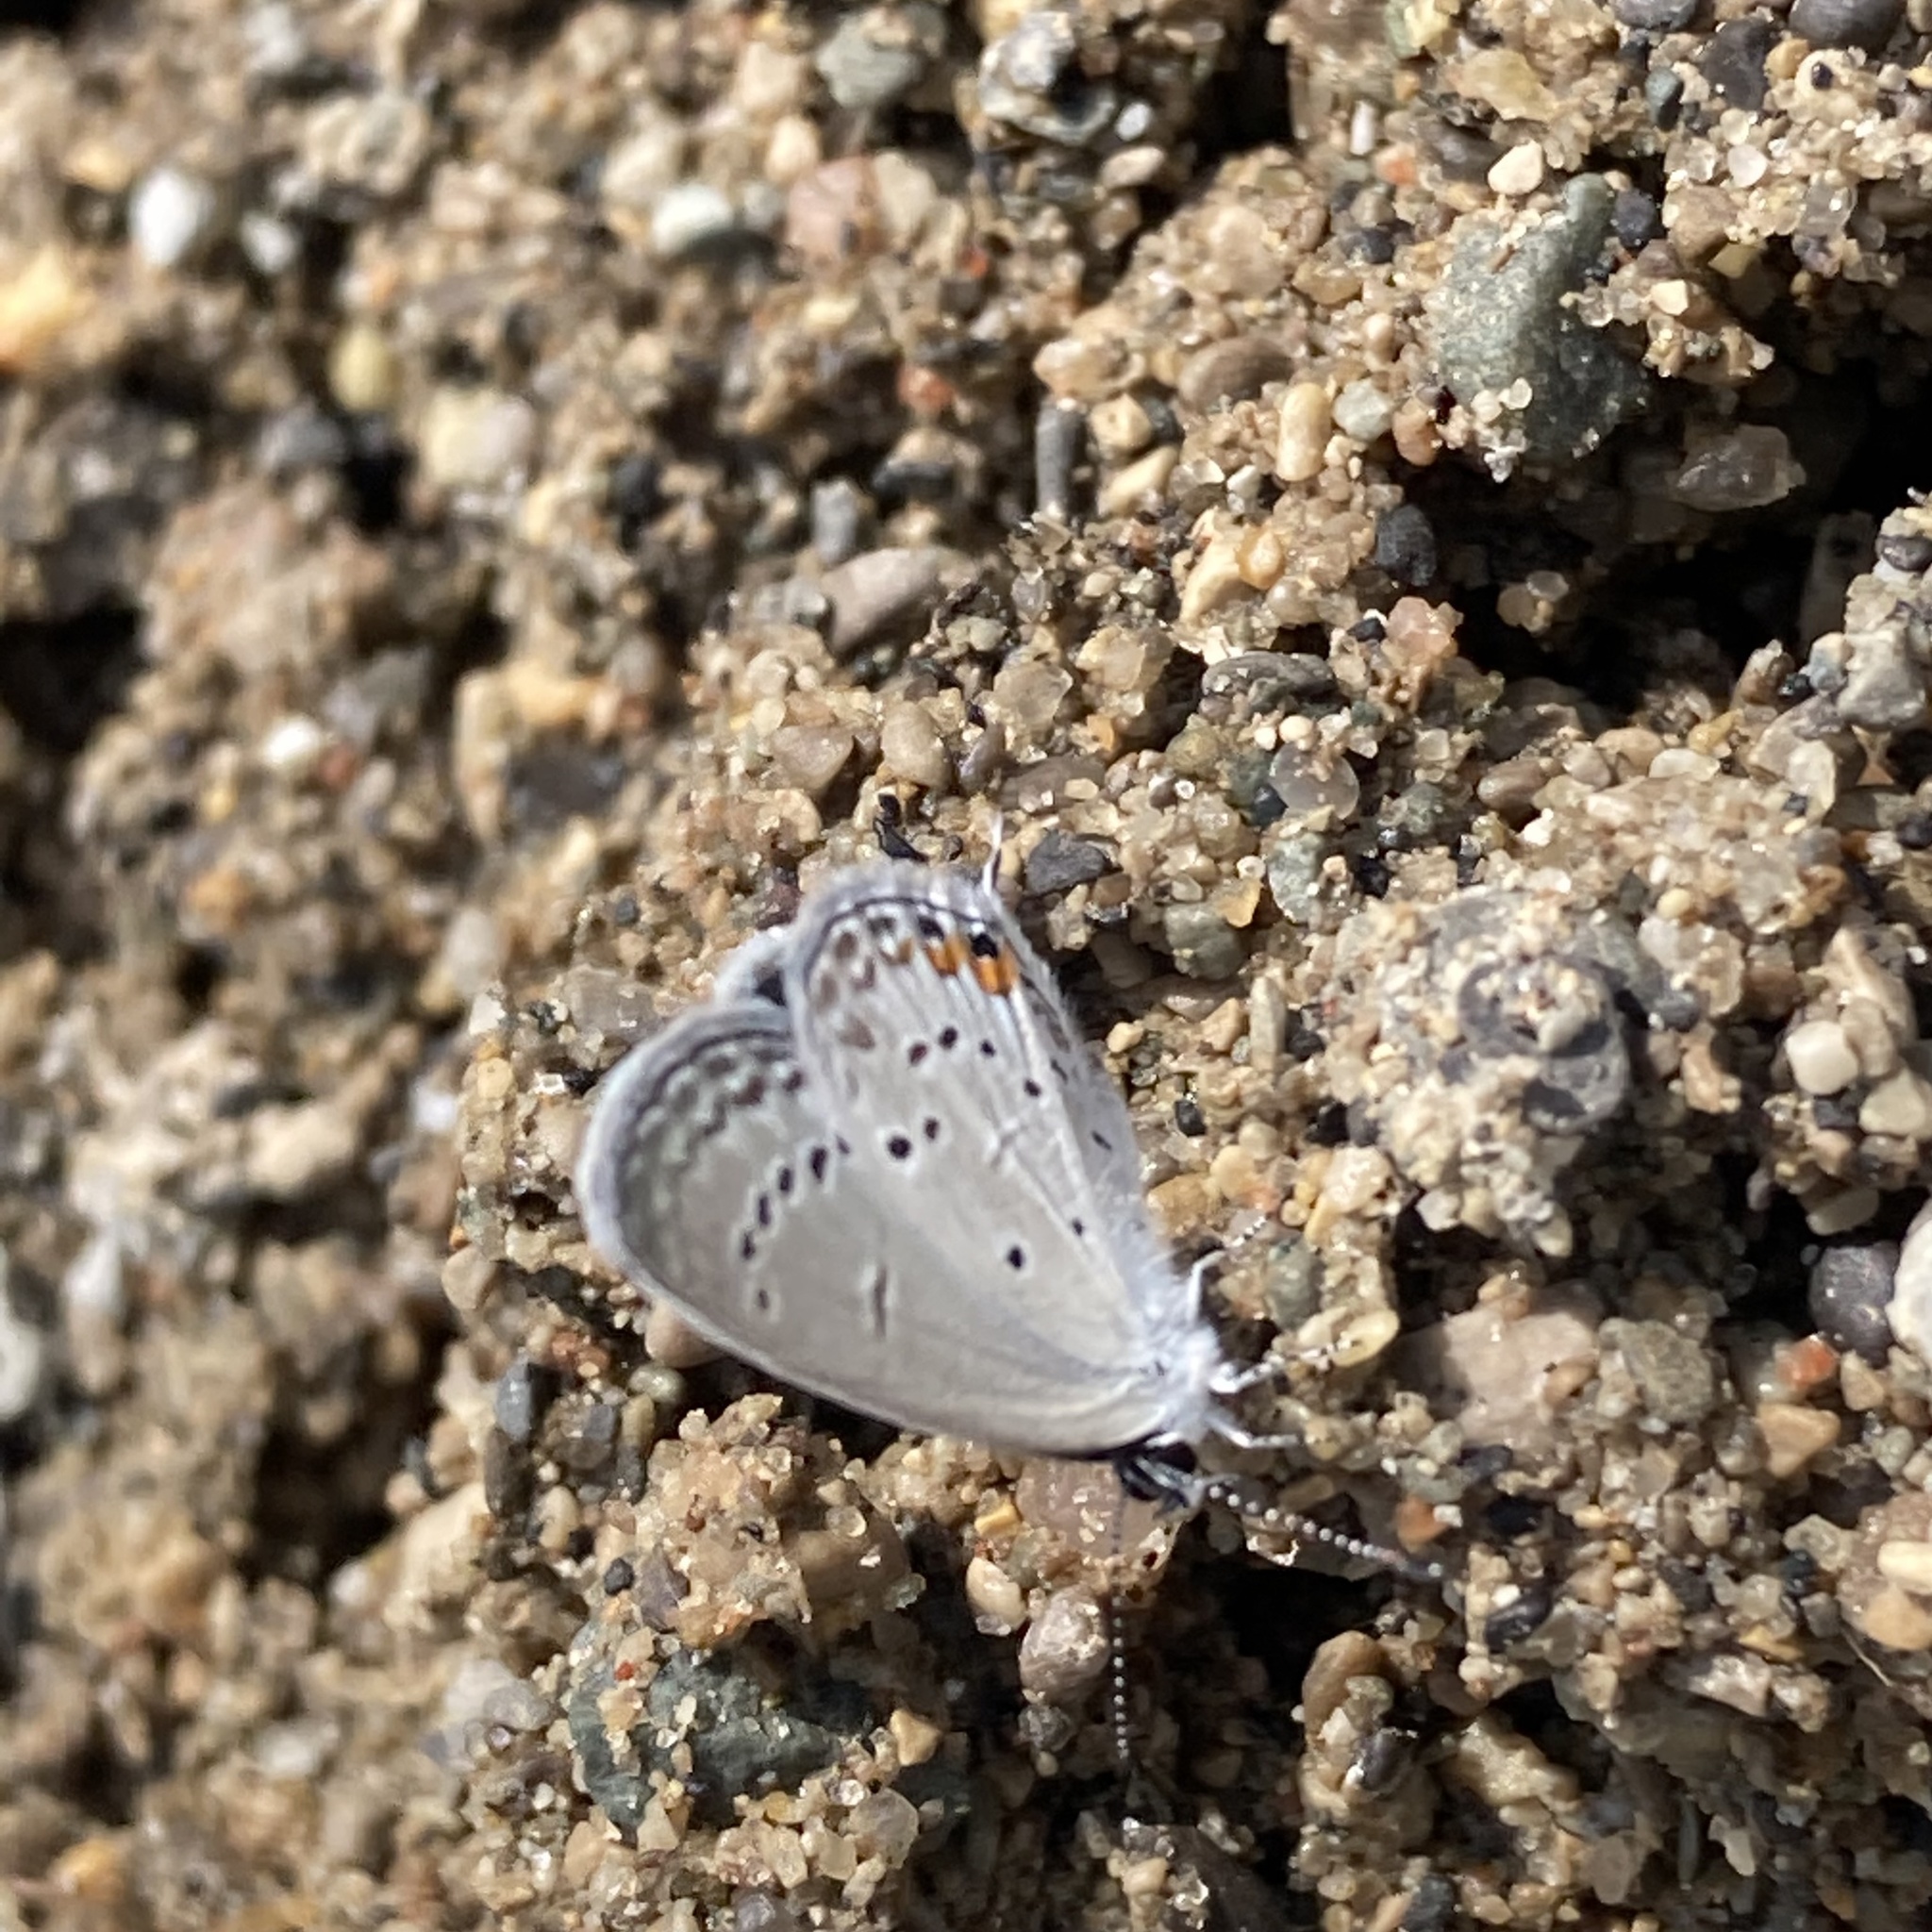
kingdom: Animalia
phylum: Arthropoda
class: Insecta
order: Lepidoptera
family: Lycaenidae
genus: Elkalyce
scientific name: Elkalyce comyntas
